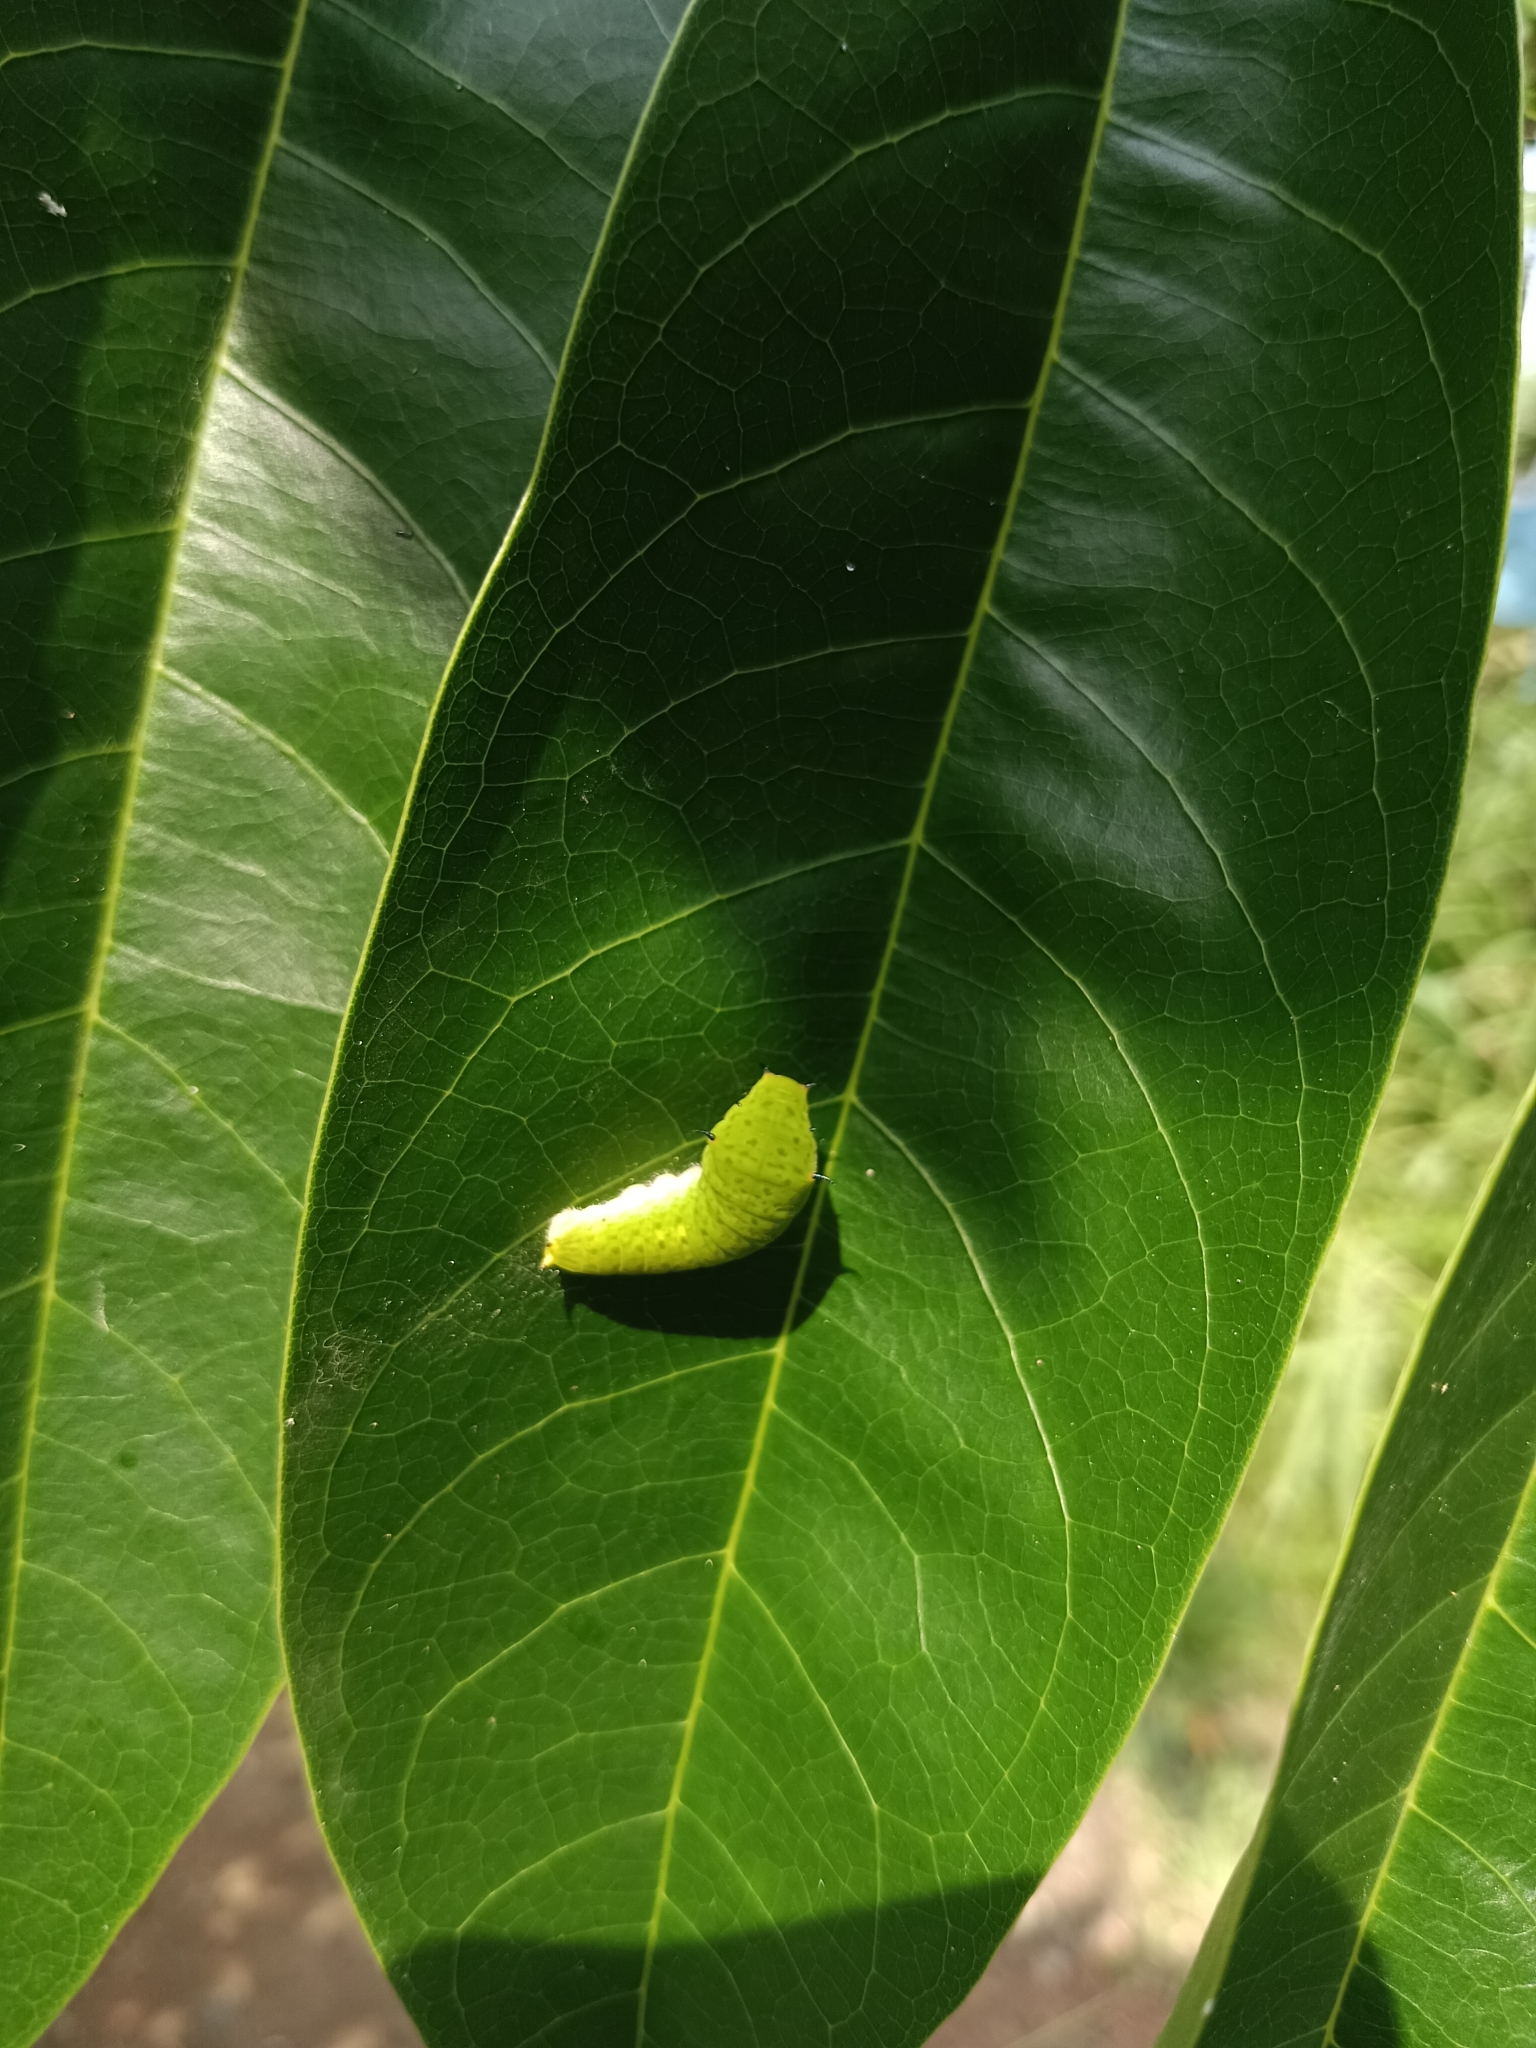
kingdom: Animalia
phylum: Arthropoda
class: Insecta
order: Lepidoptera
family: Papilionidae
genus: Graphium
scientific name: Graphium agamemnon
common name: Tailed jay
